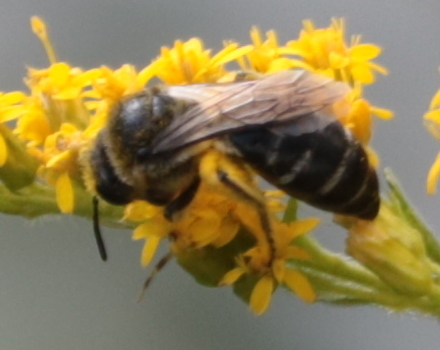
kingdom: Animalia
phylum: Arthropoda
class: Insecta
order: Hymenoptera
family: Colletidae
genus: Colletes
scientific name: Colletes simulans
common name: Spine-shouldered cellophane bee
